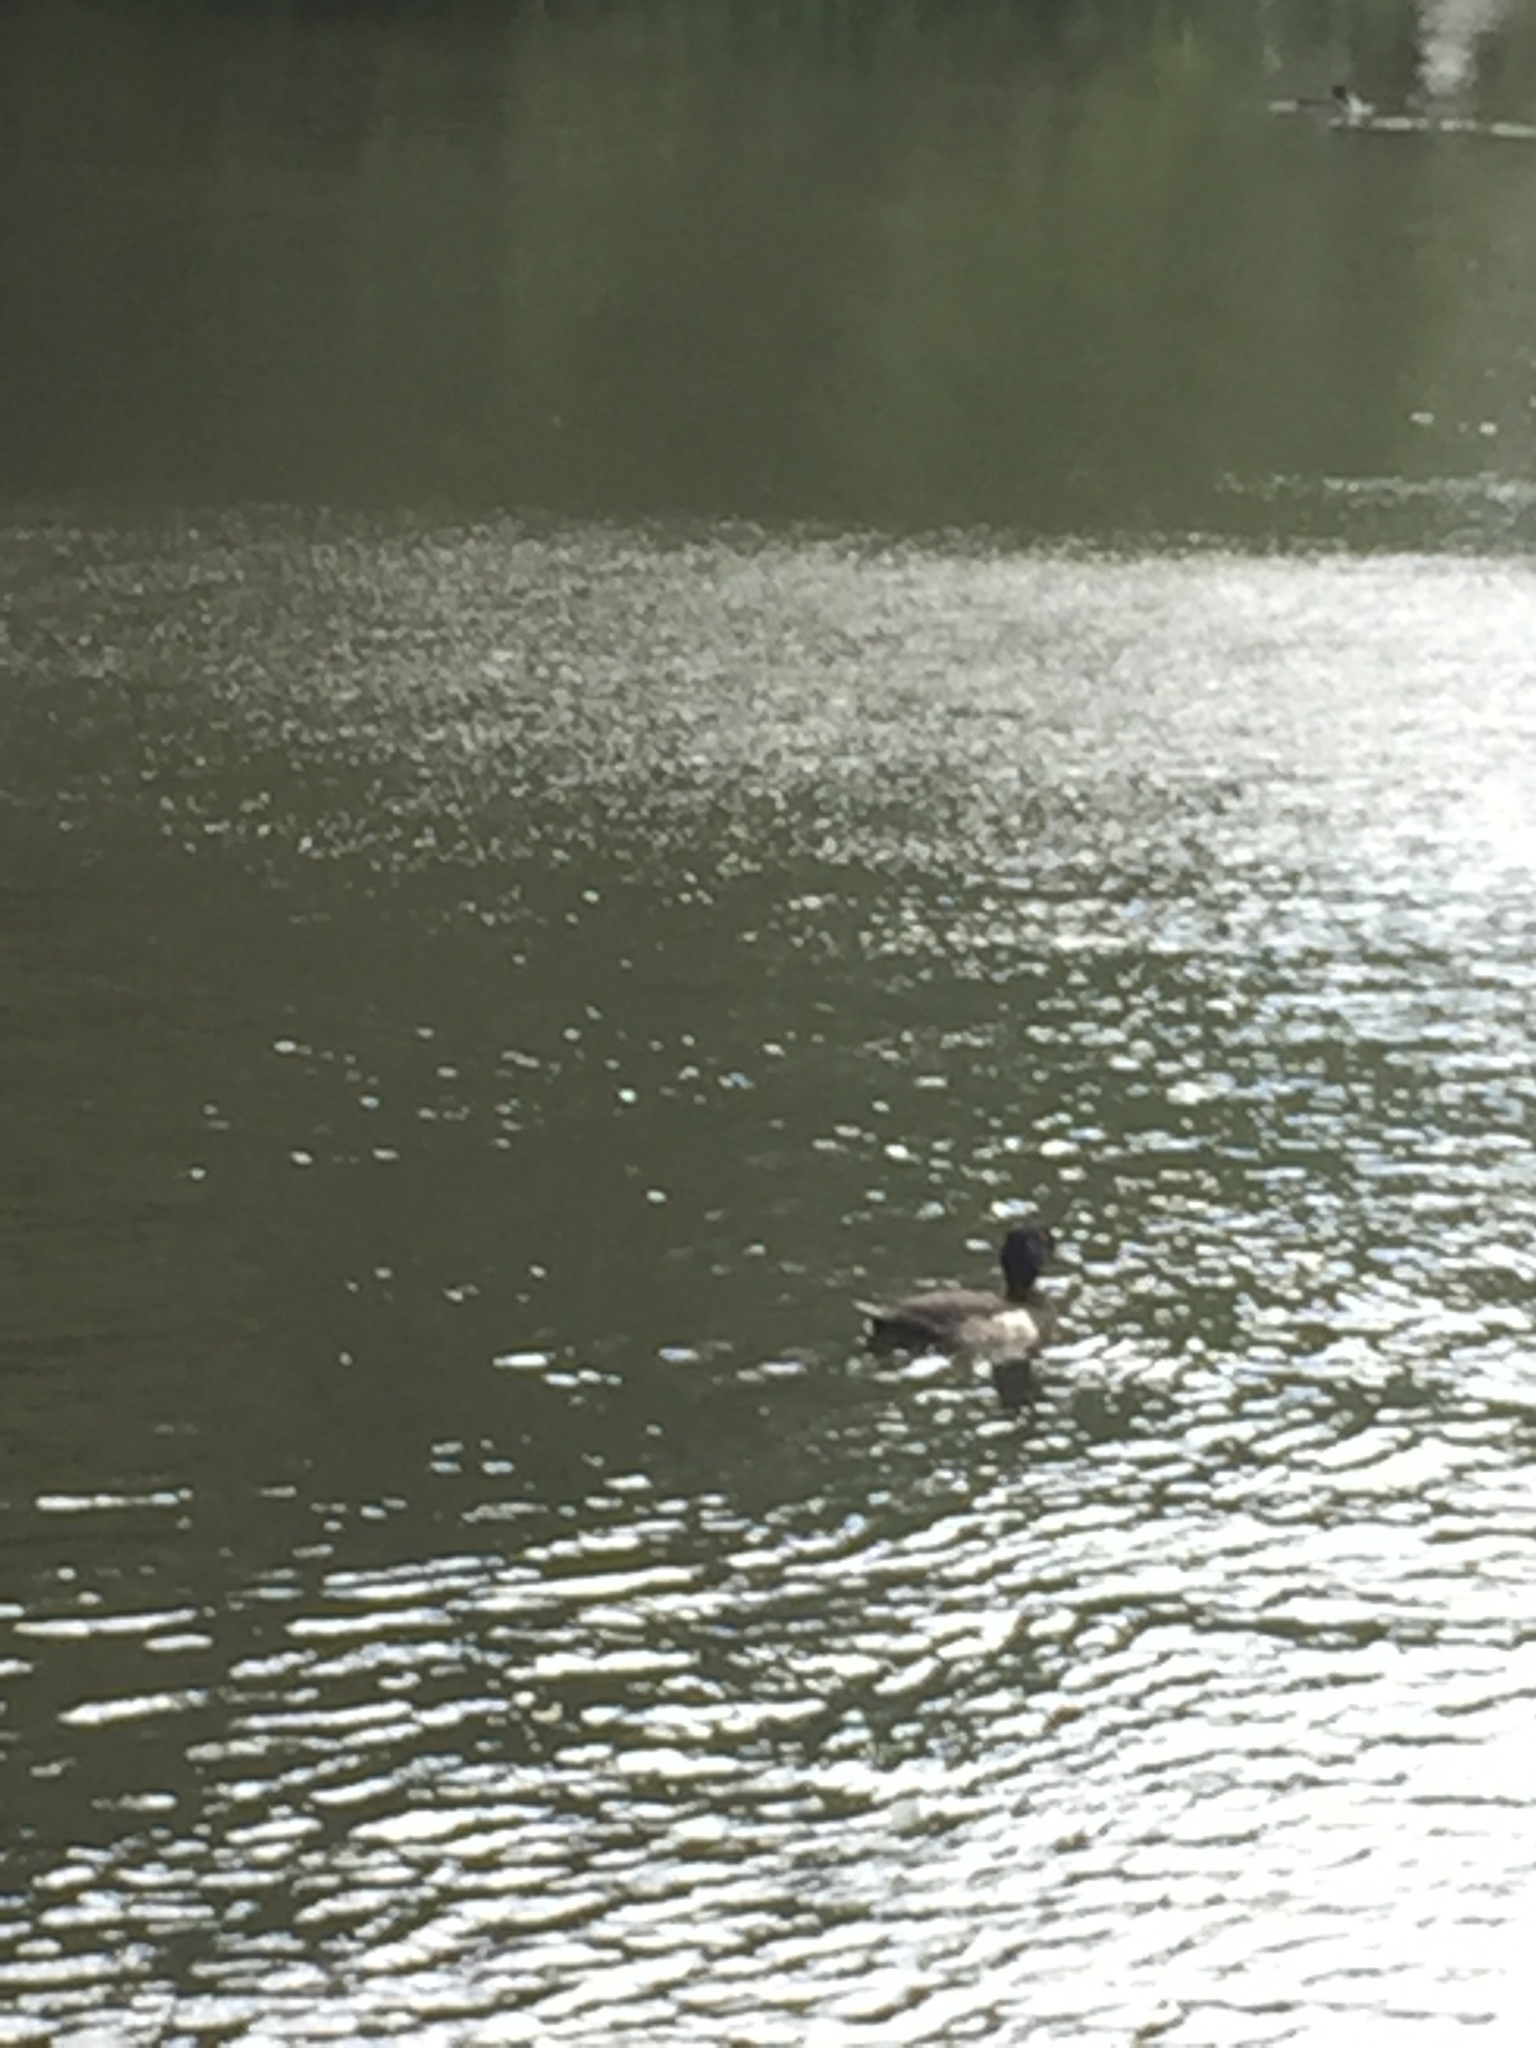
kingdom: Animalia
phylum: Chordata
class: Aves
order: Anseriformes
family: Anatidae
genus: Aythya
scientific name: Aythya fuligula
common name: Tufted duck
